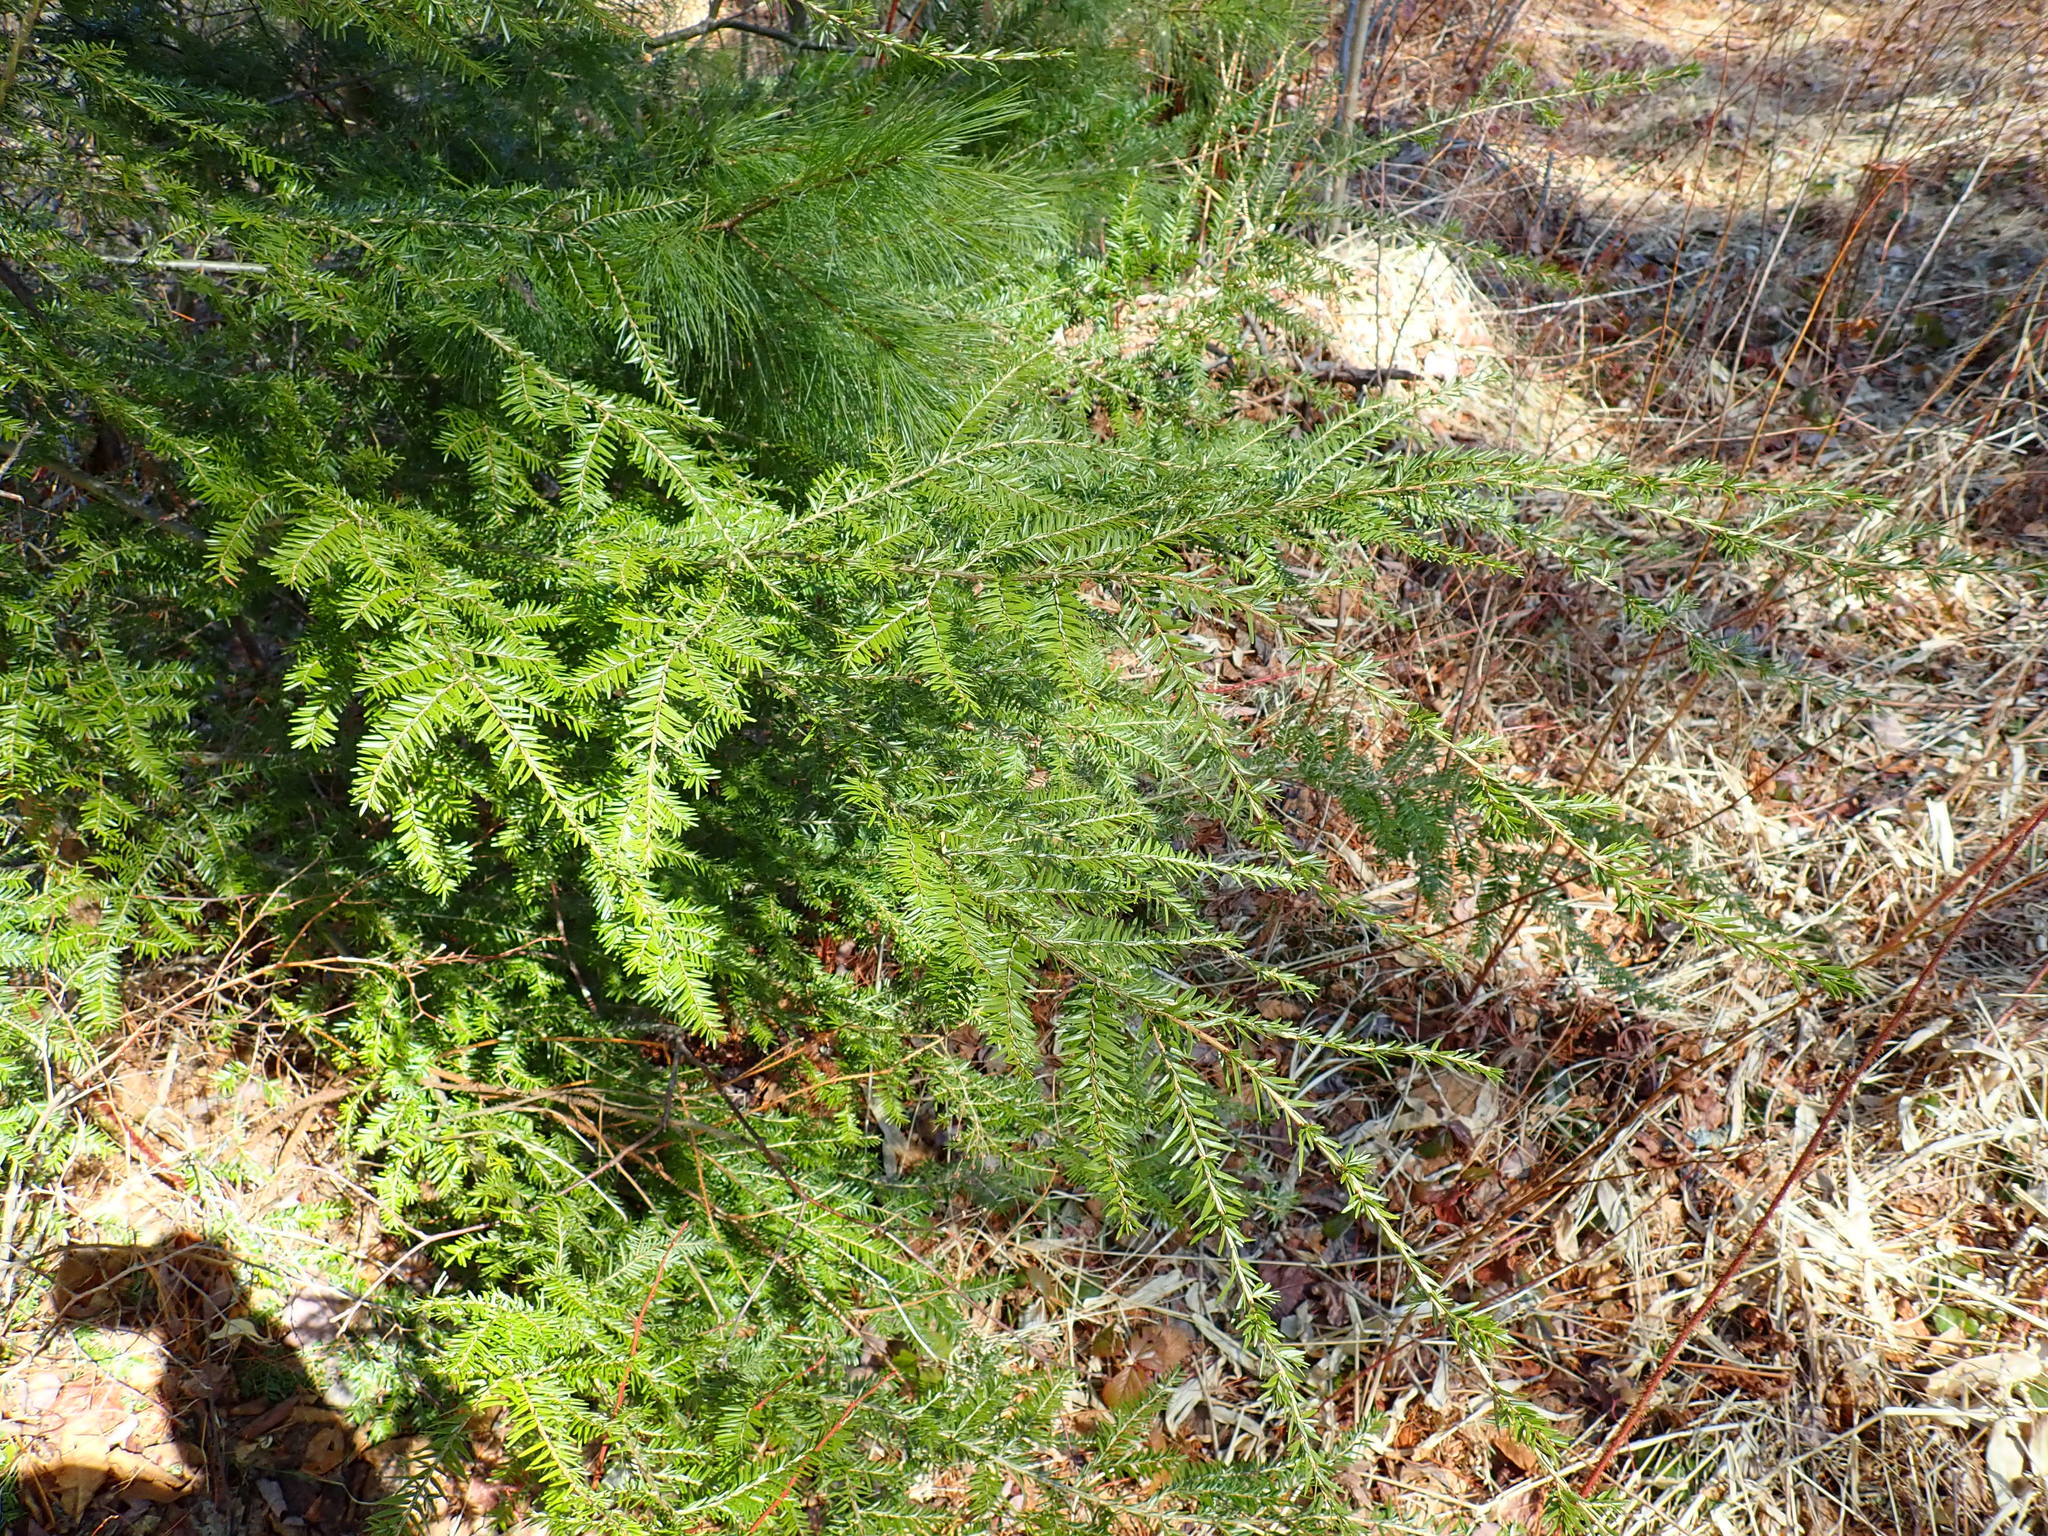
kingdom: Plantae
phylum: Tracheophyta
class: Pinopsida
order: Pinales
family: Pinaceae
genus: Tsuga
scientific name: Tsuga canadensis
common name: Eastern hemlock
